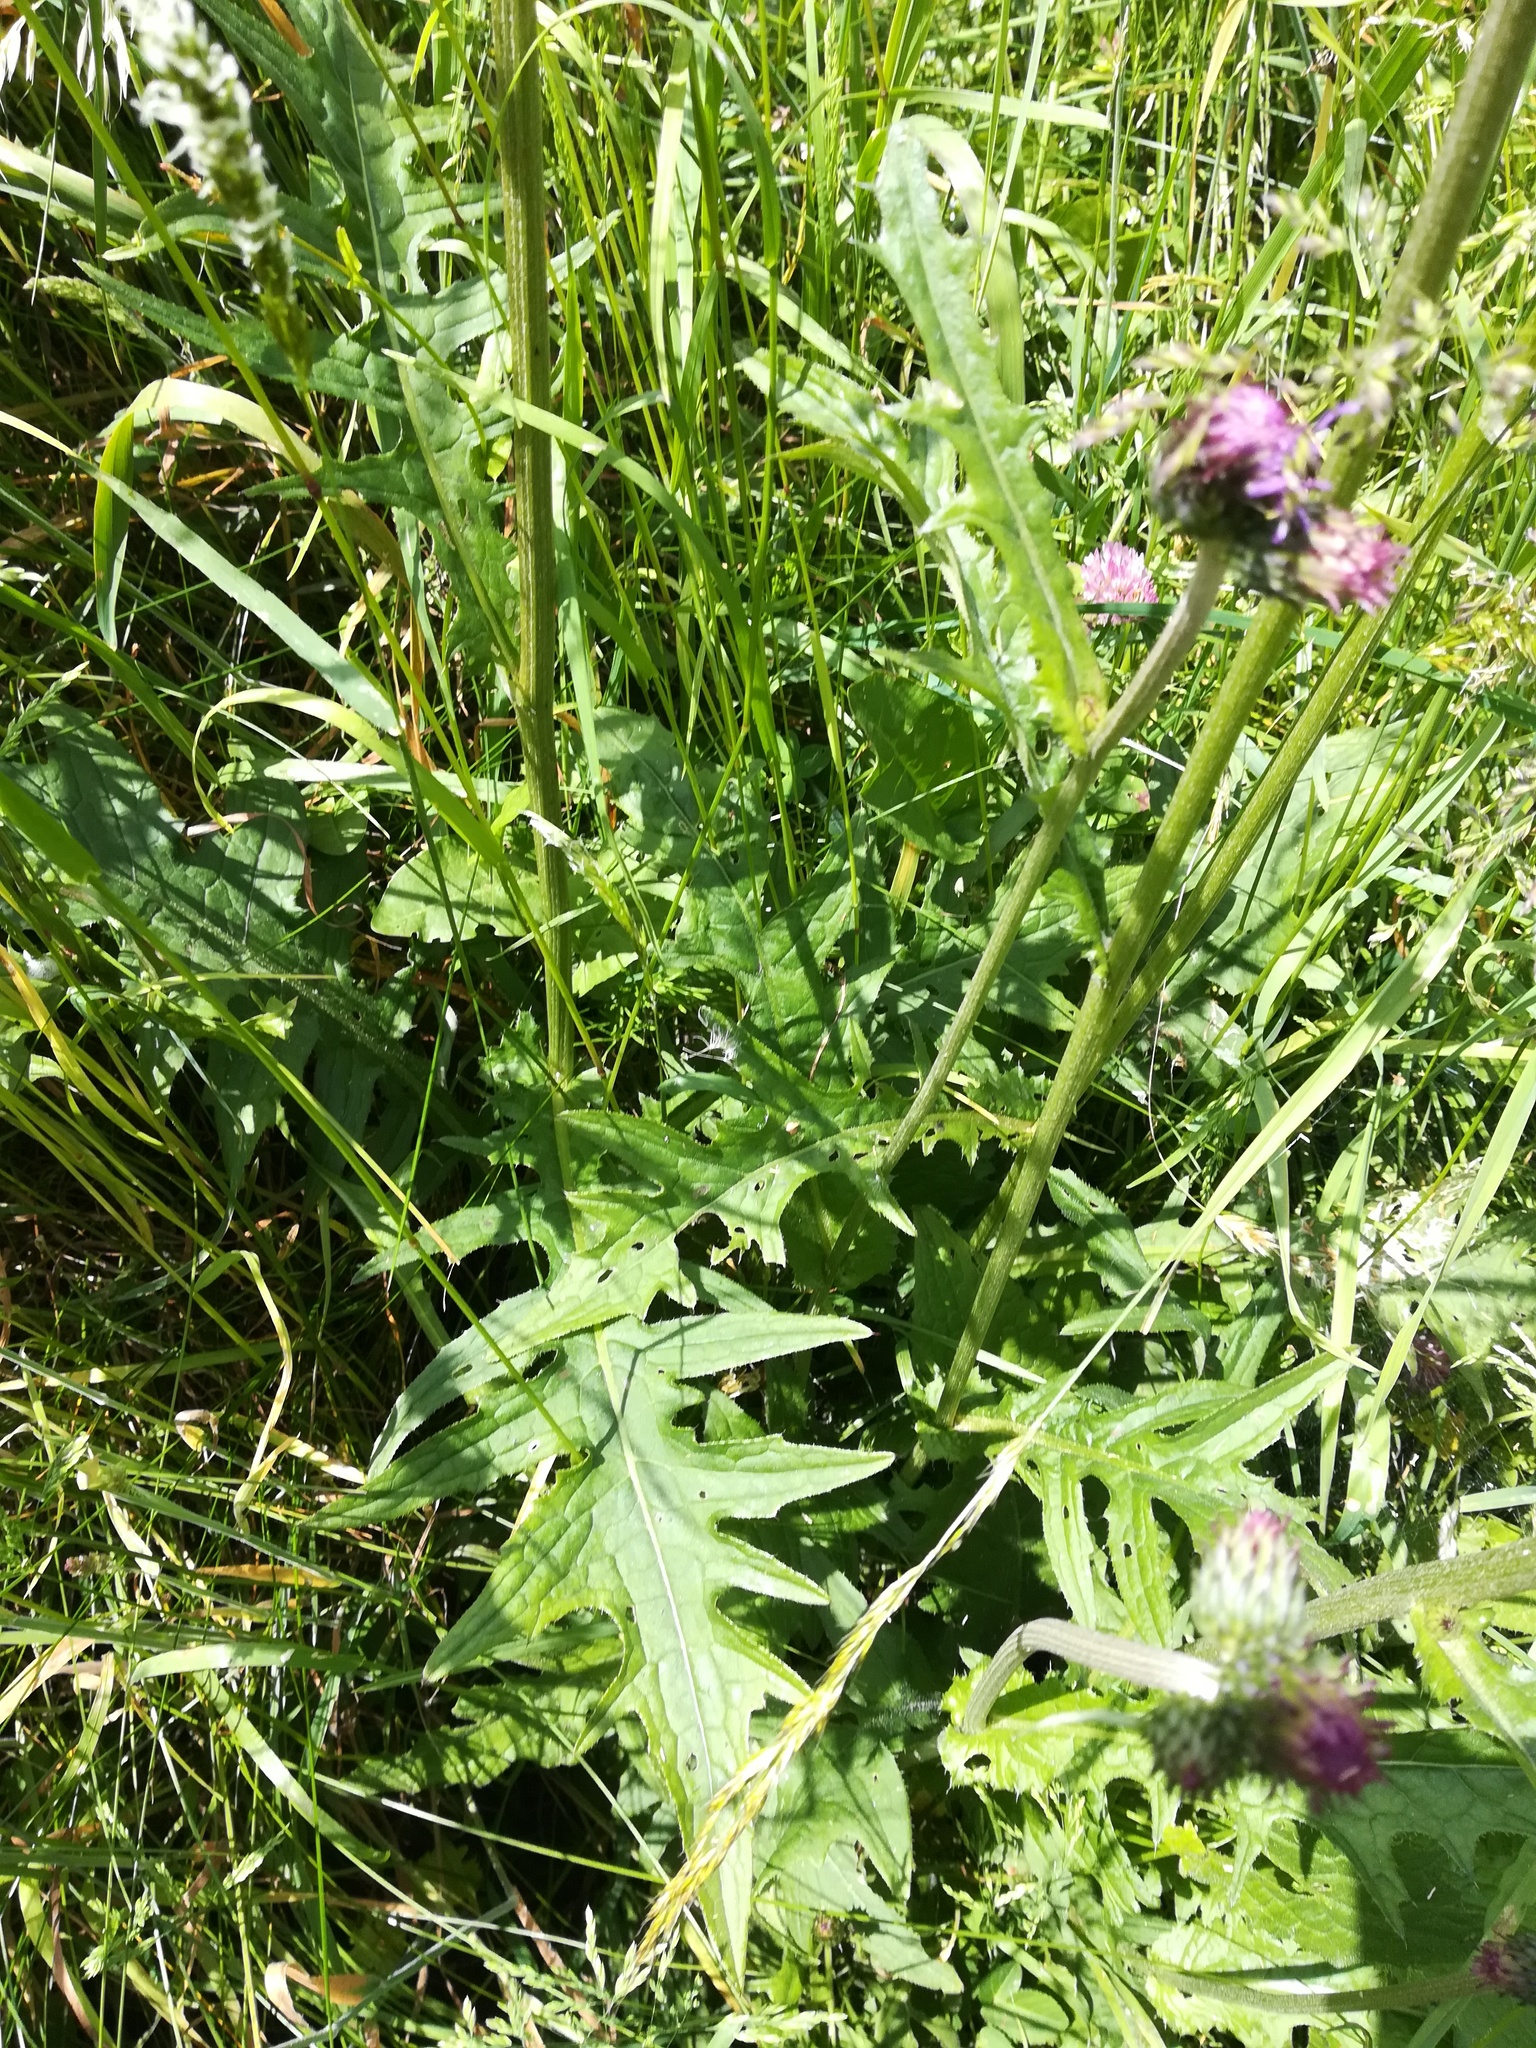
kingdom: Plantae
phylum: Tracheophyta
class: Magnoliopsida
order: Asterales
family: Asteraceae
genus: Cirsium
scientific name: Cirsium rivulare
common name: Brook thistle
